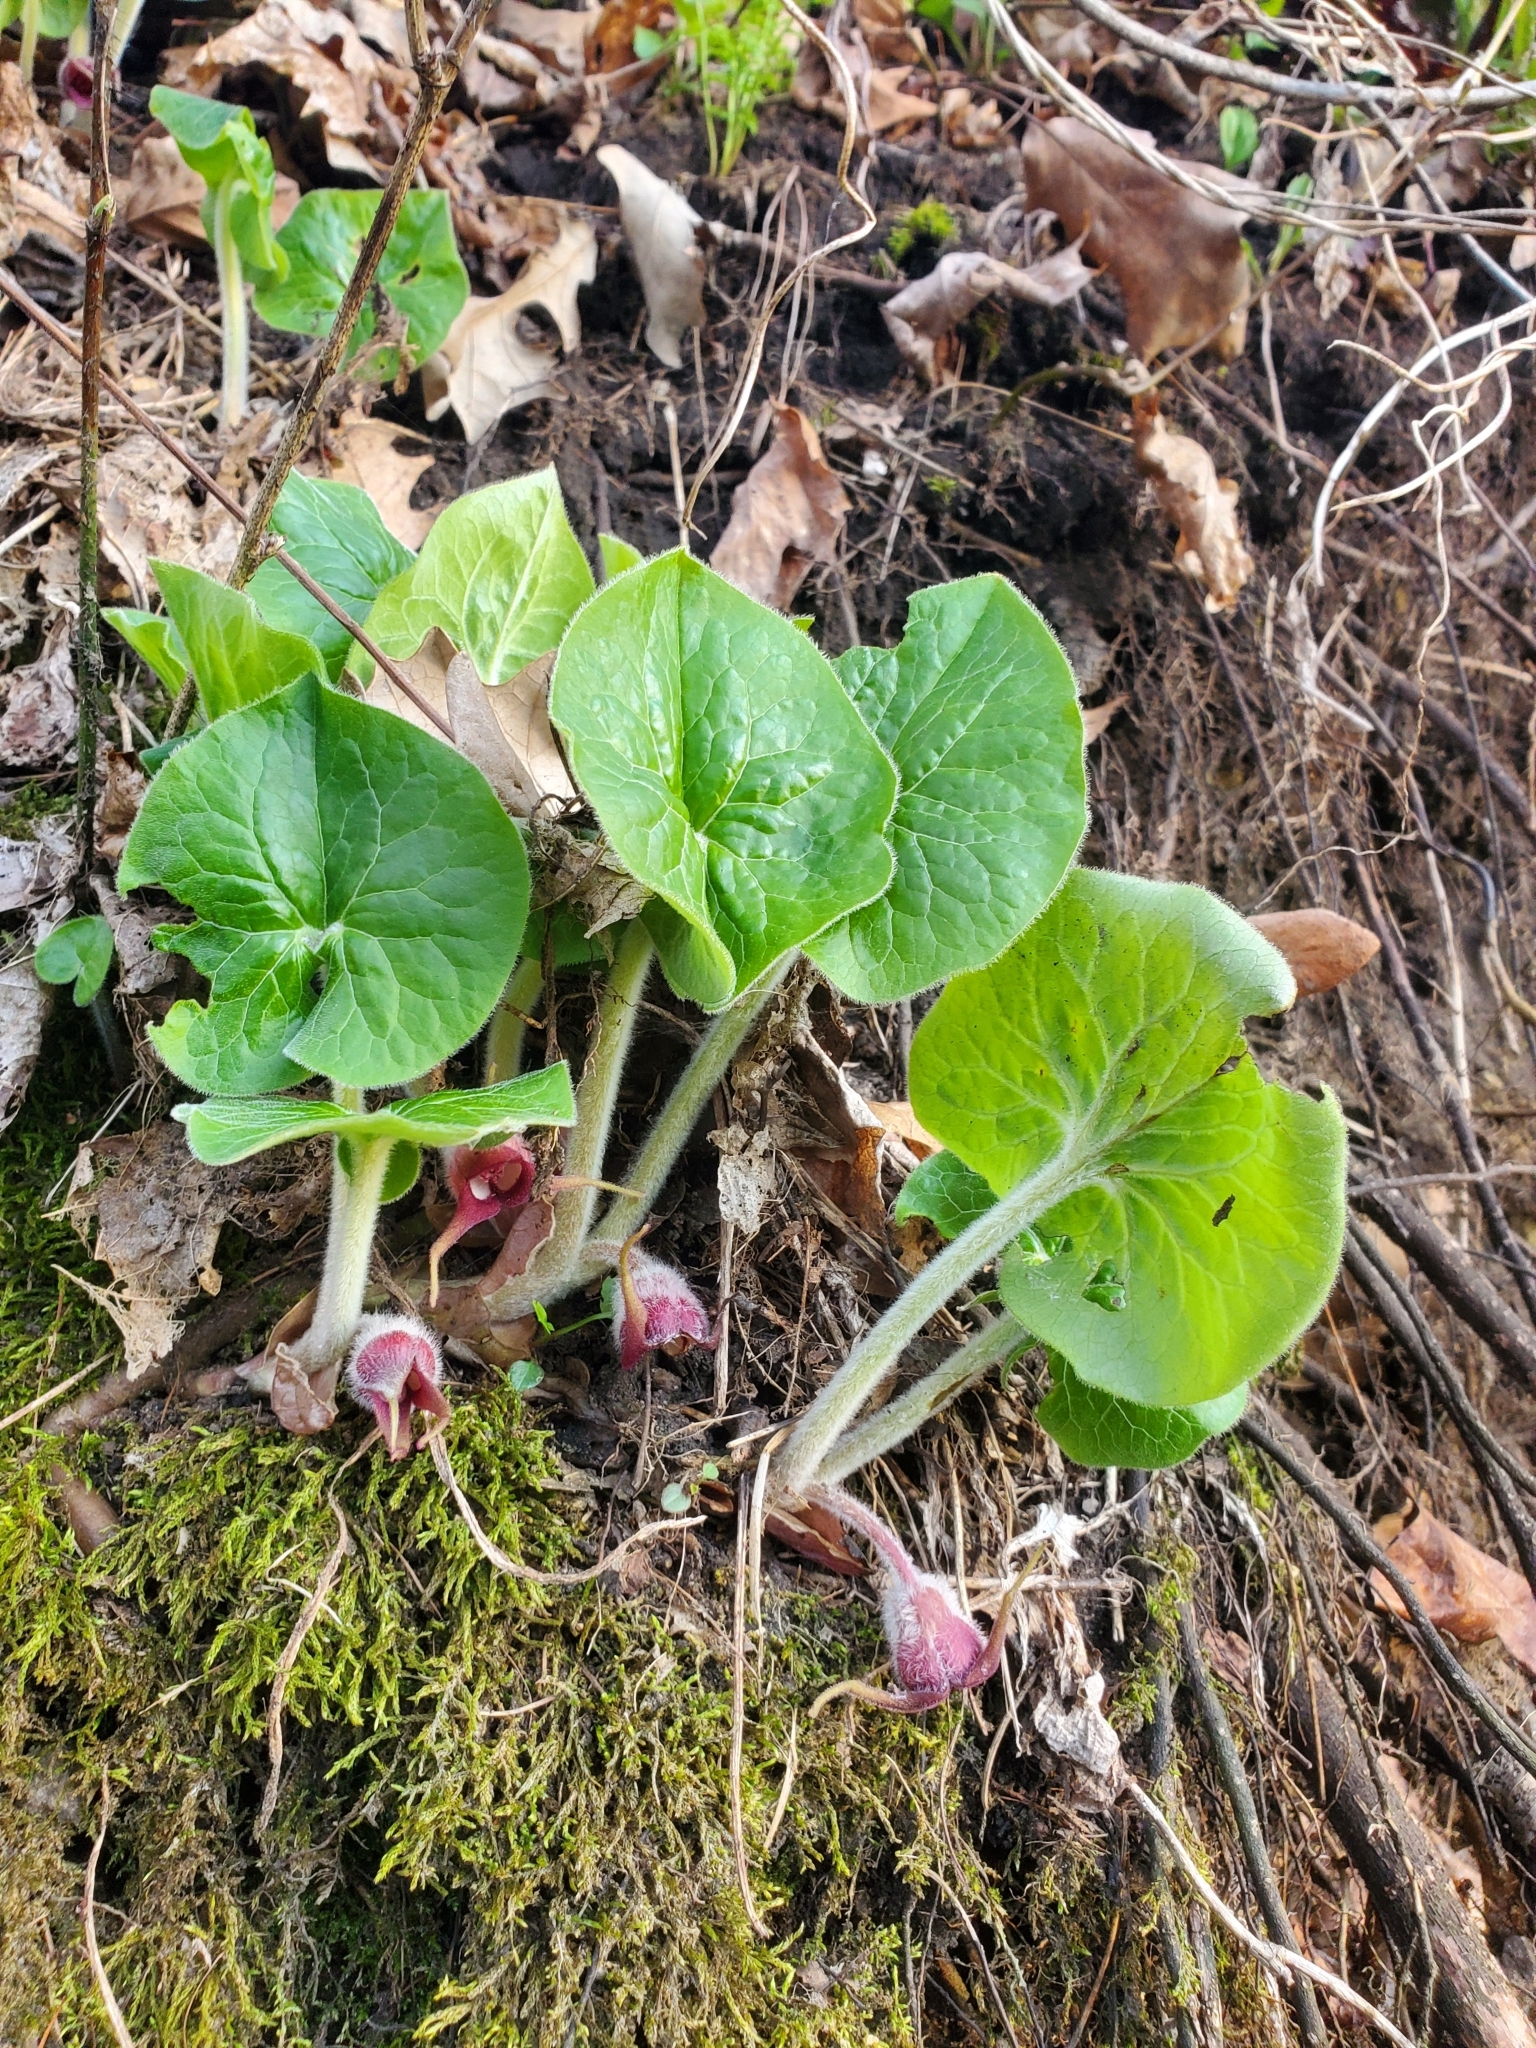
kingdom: Plantae
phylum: Tracheophyta
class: Magnoliopsida
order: Piperales
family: Aristolochiaceae
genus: Asarum
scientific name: Asarum canadense
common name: Wild ginger
